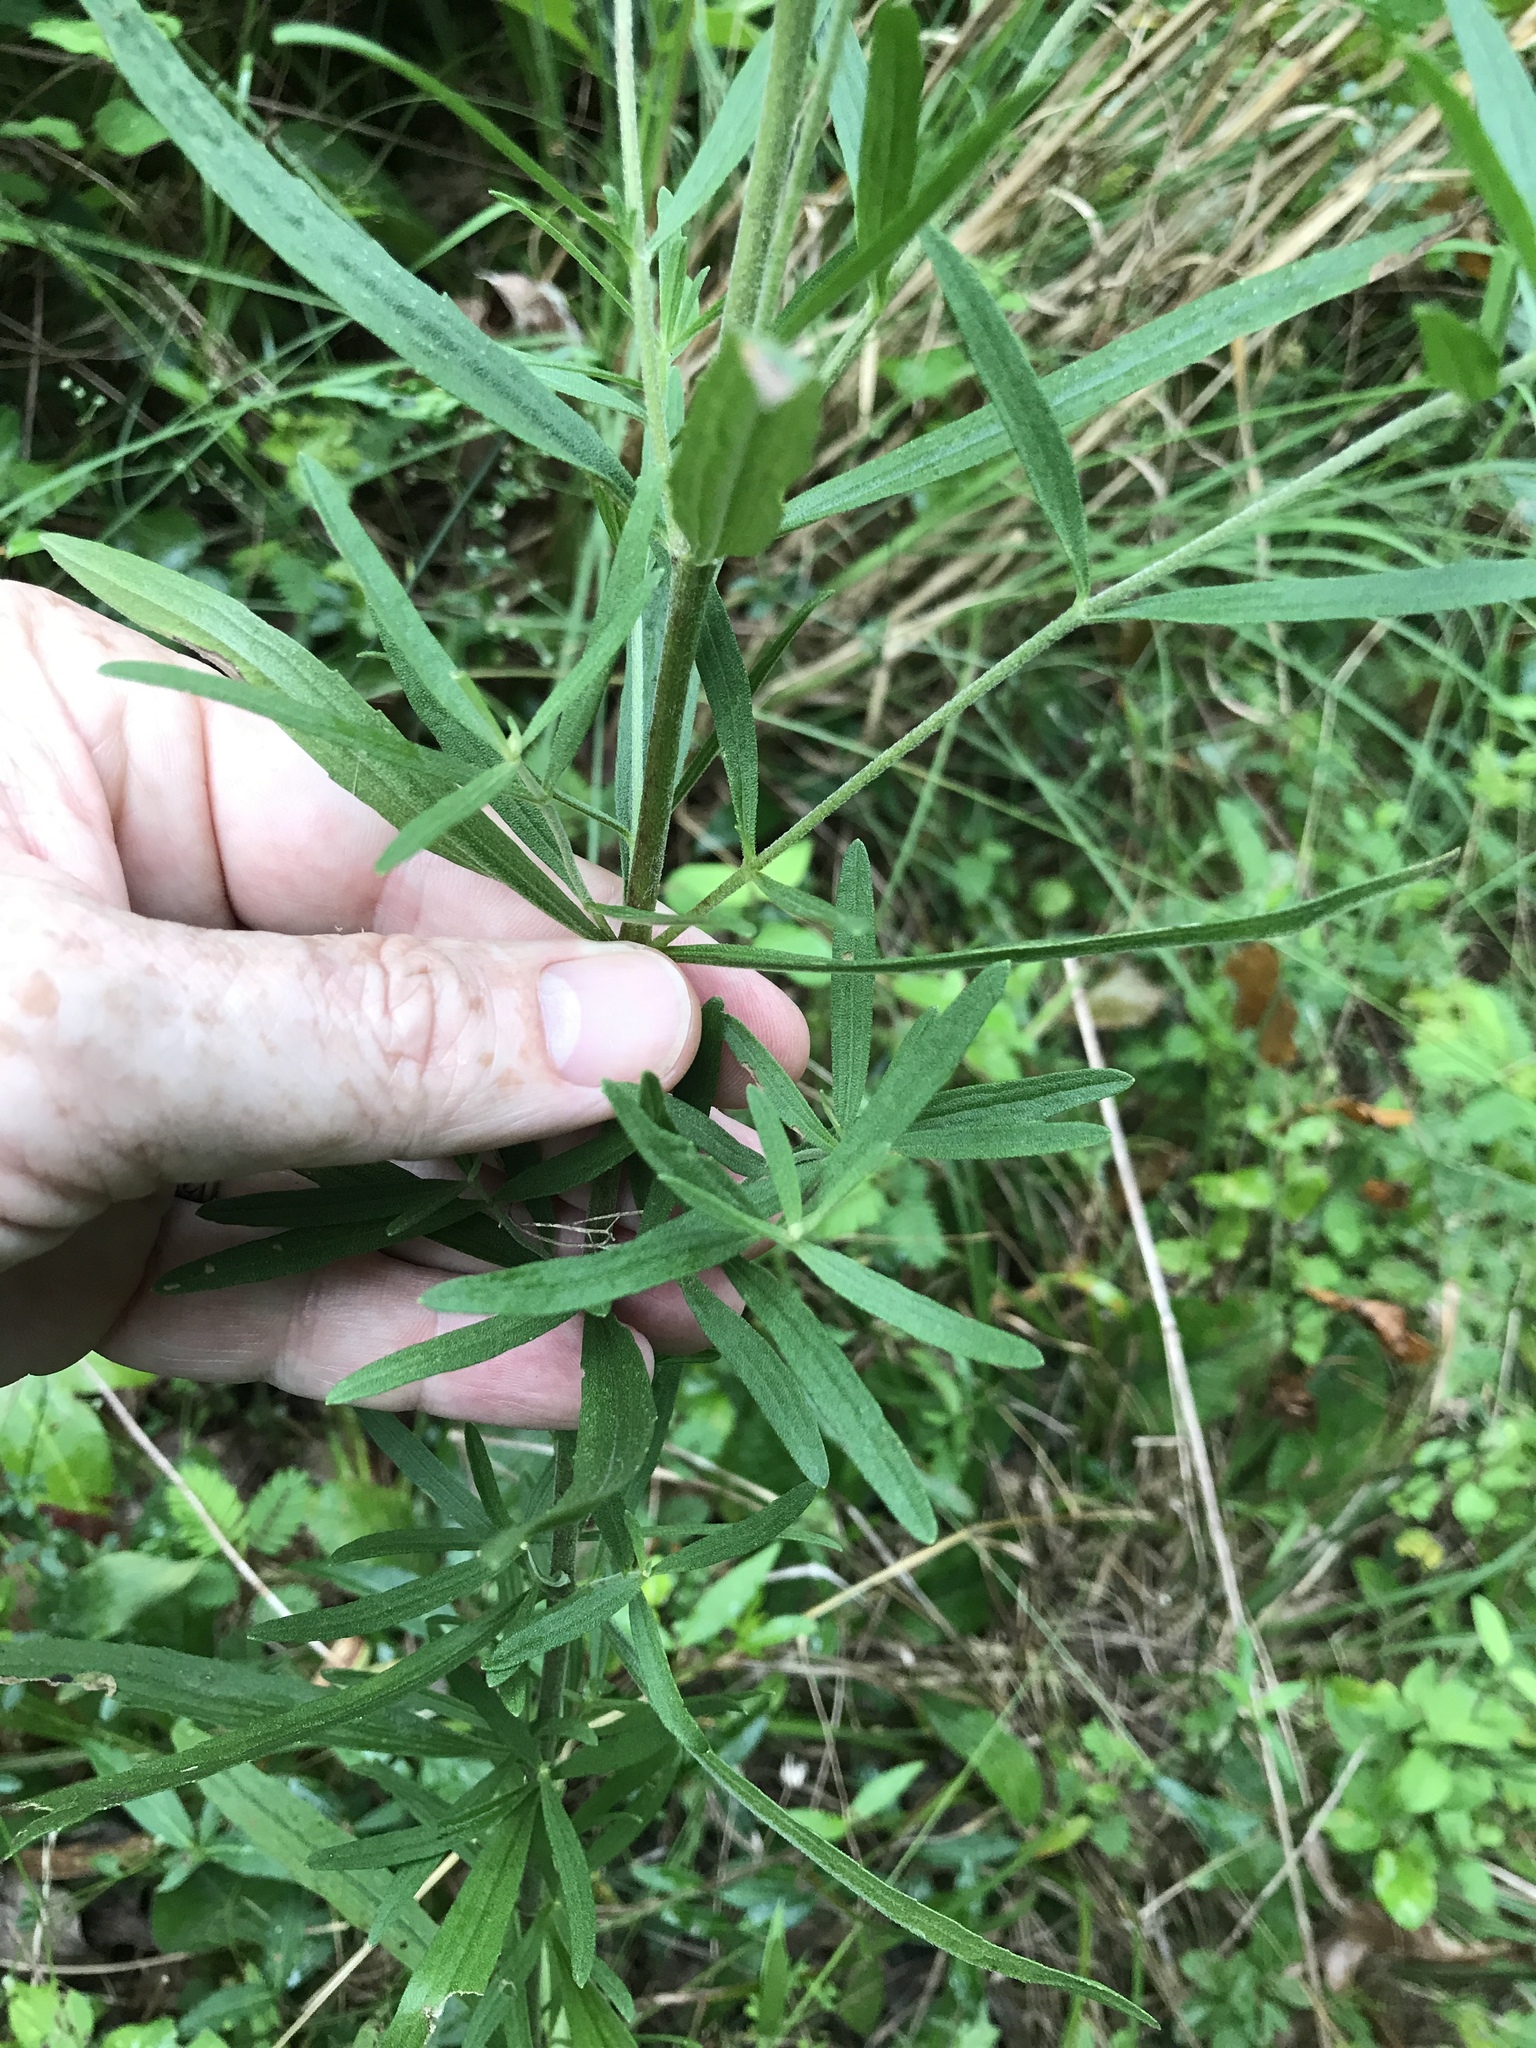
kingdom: Plantae
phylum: Tracheophyta
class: Magnoliopsida
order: Asterales
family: Asteraceae
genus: Eupatorium
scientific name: Eupatorium torreyanum
